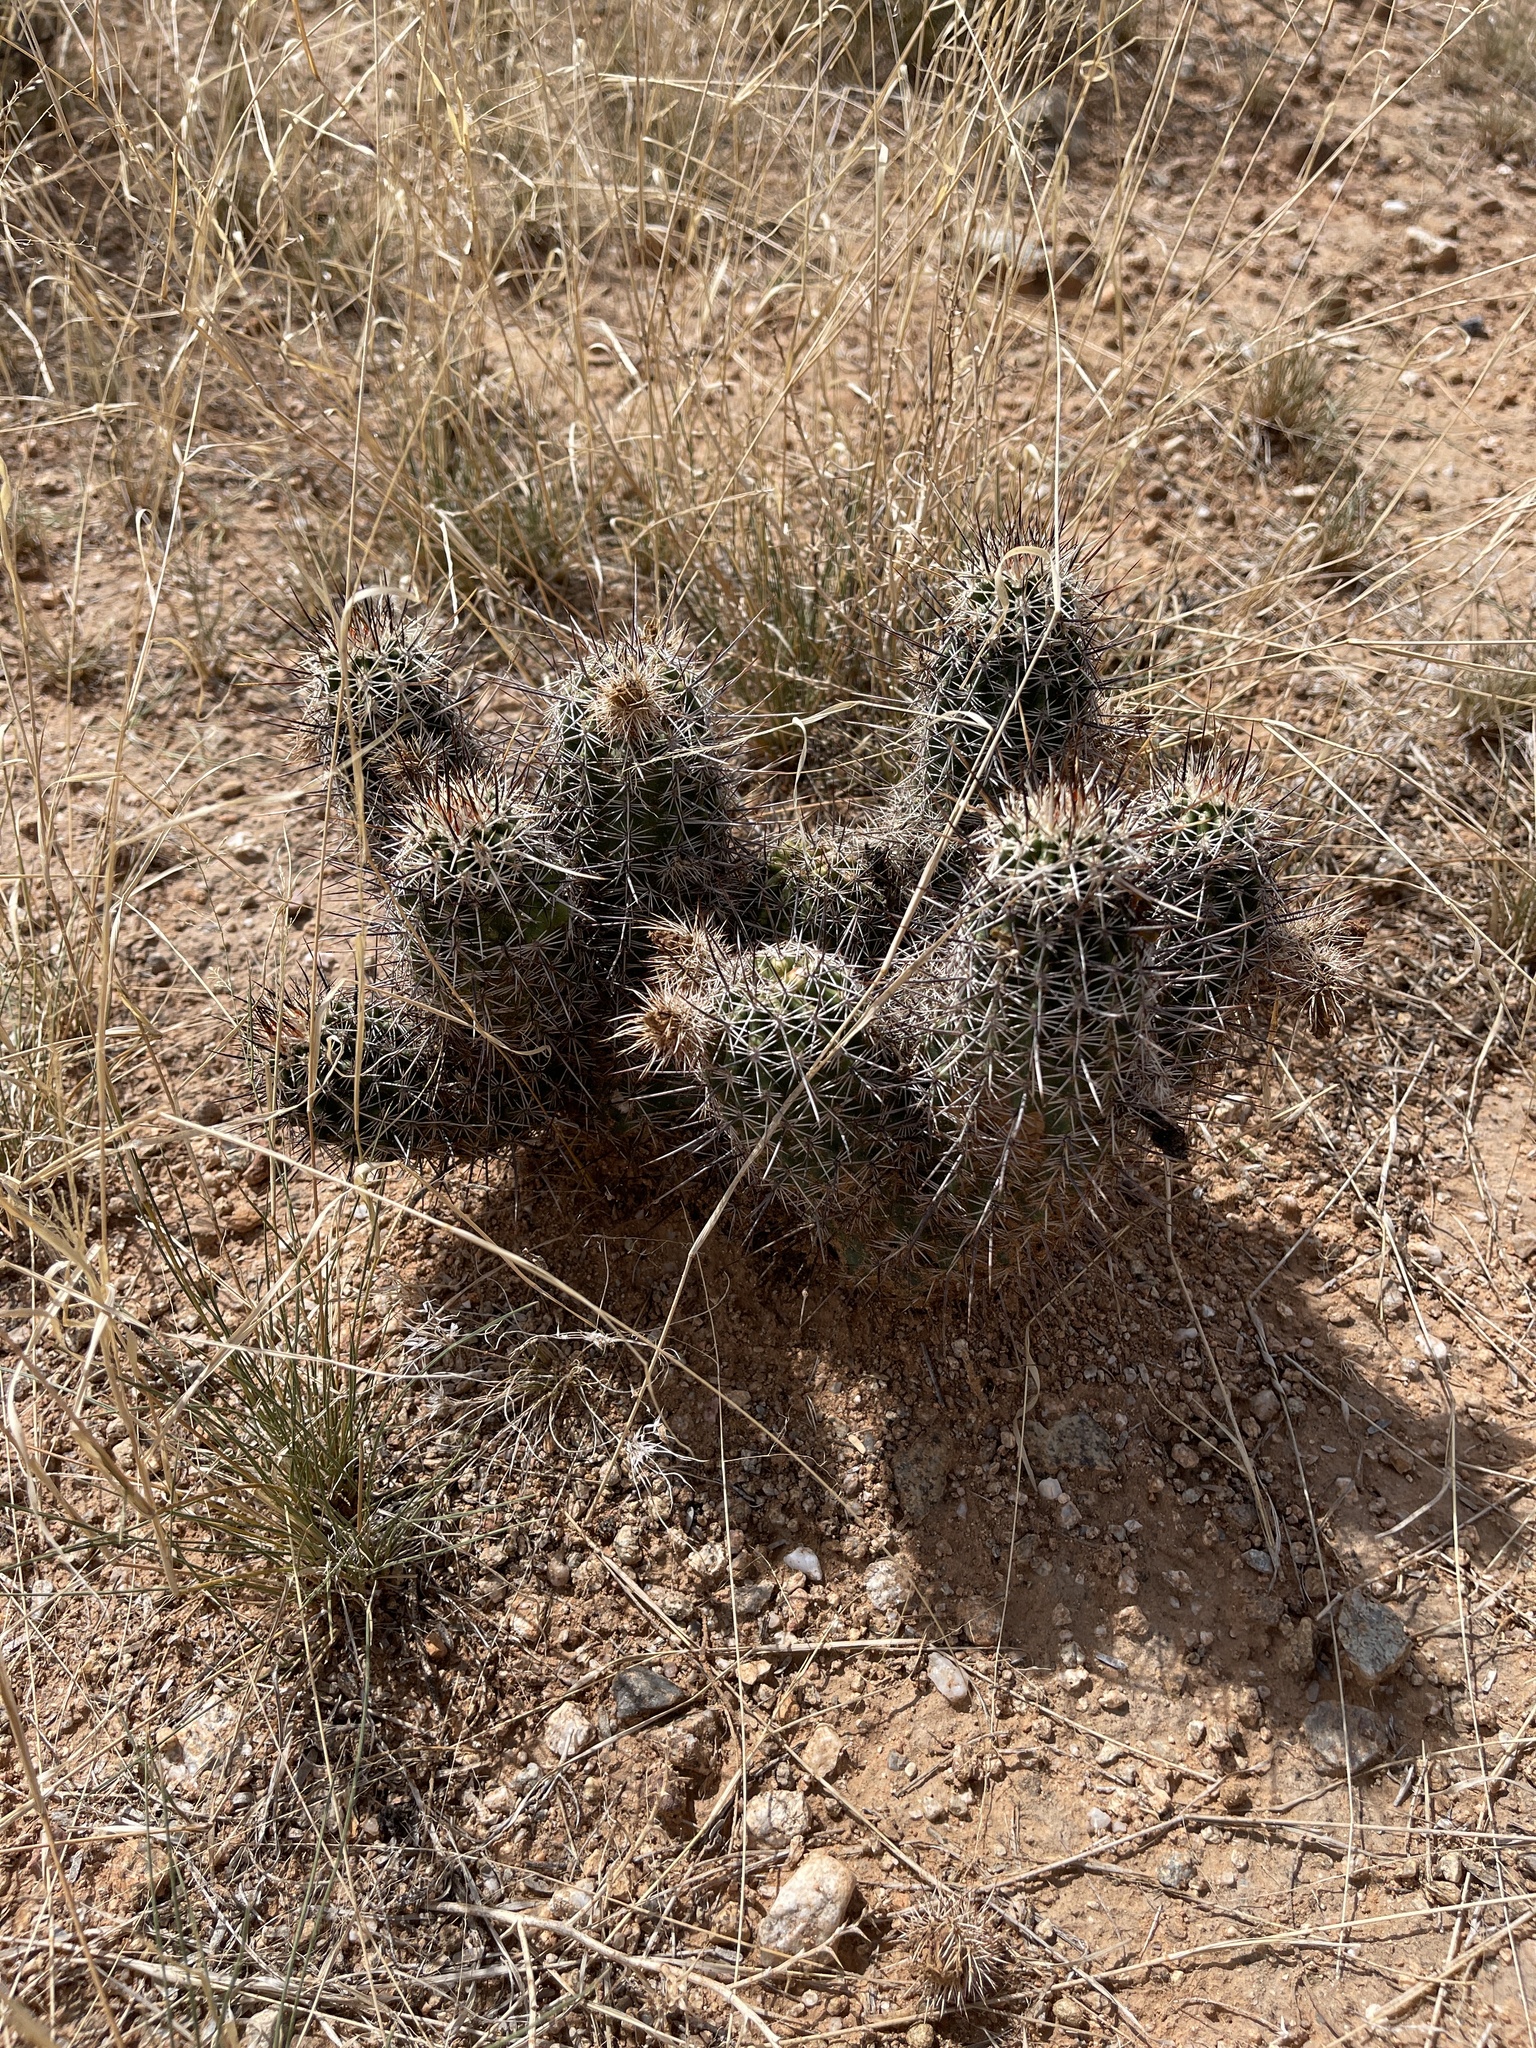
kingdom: Plantae
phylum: Tracheophyta
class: Magnoliopsida
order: Caryophyllales
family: Cactaceae
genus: Echinocereus
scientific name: Echinocereus fasciculatus
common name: Bundle hedgehog
